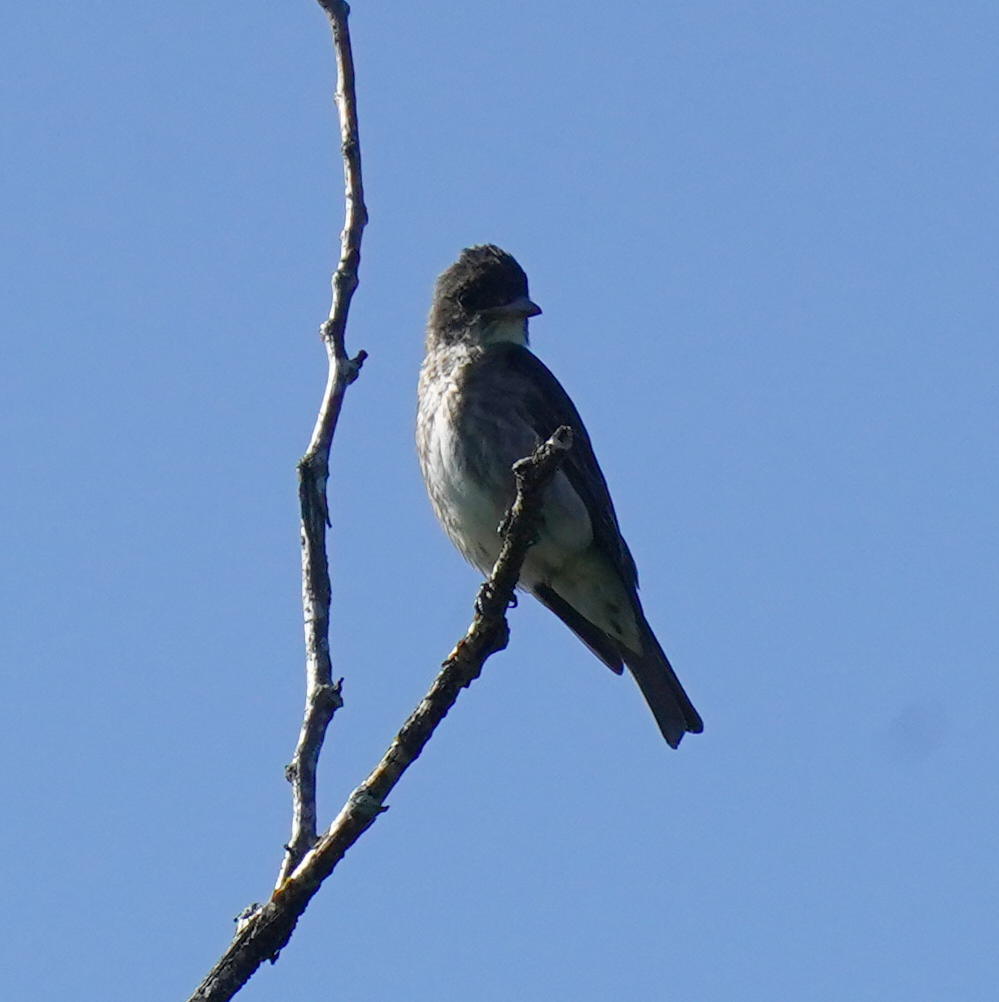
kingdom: Animalia
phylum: Chordata
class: Aves
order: Passeriformes
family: Tyrannidae
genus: Contopus
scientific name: Contopus cooperi
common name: Olive-sided flycatcher
